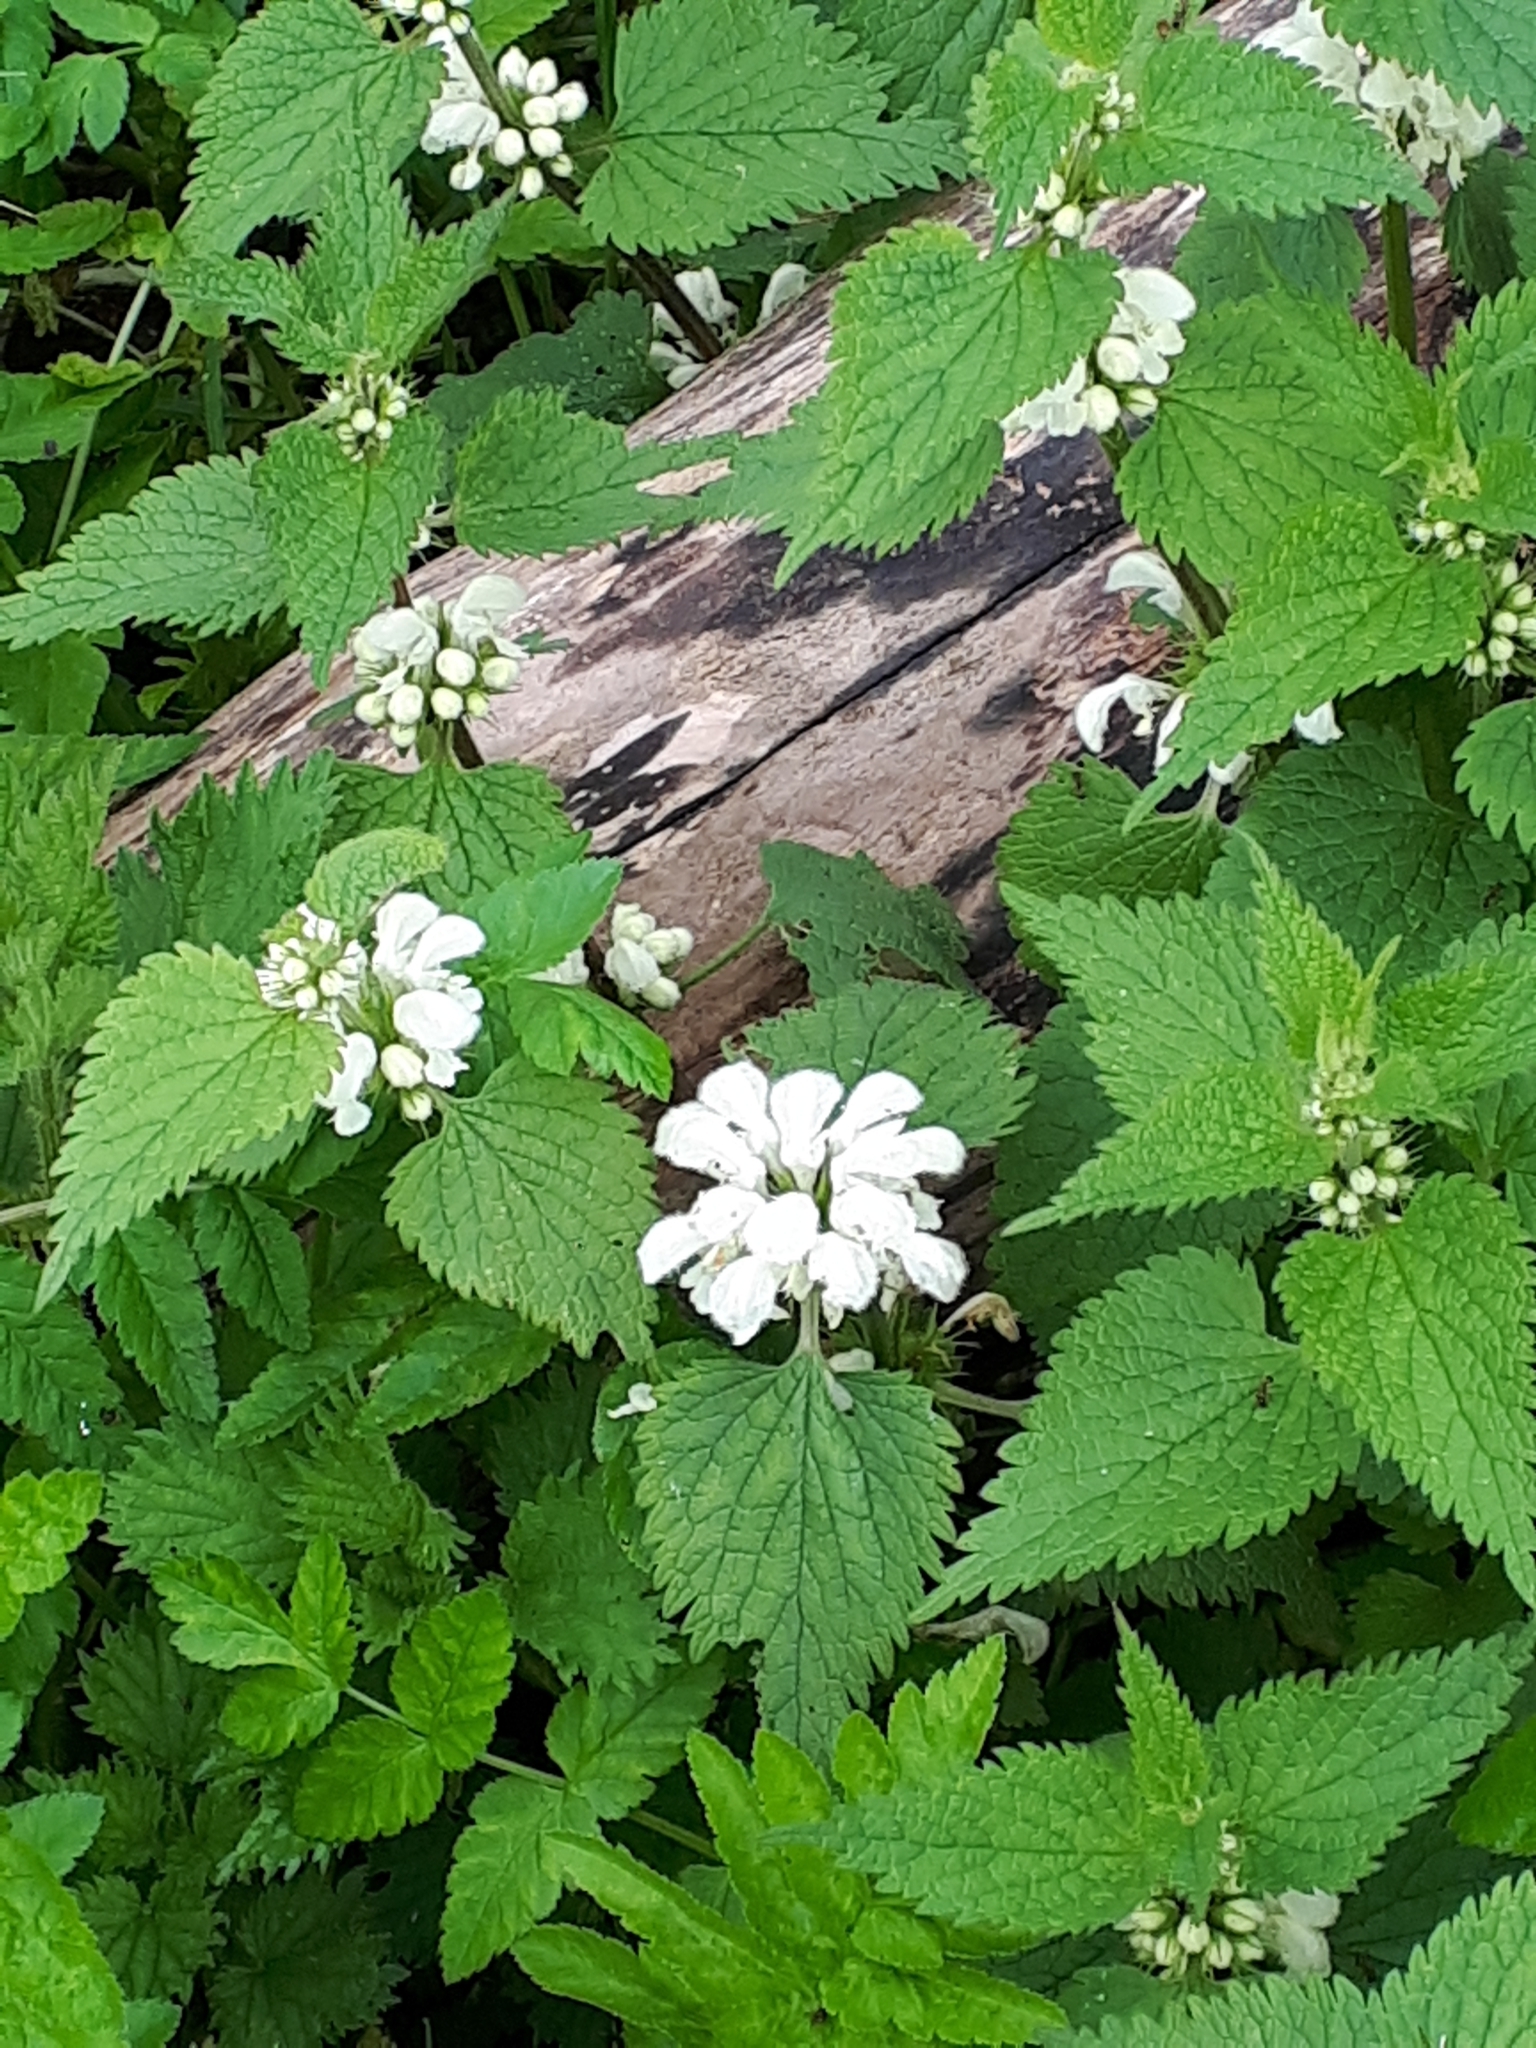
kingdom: Plantae
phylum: Tracheophyta
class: Magnoliopsida
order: Lamiales
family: Lamiaceae
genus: Lamium
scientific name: Lamium album
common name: White dead-nettle
